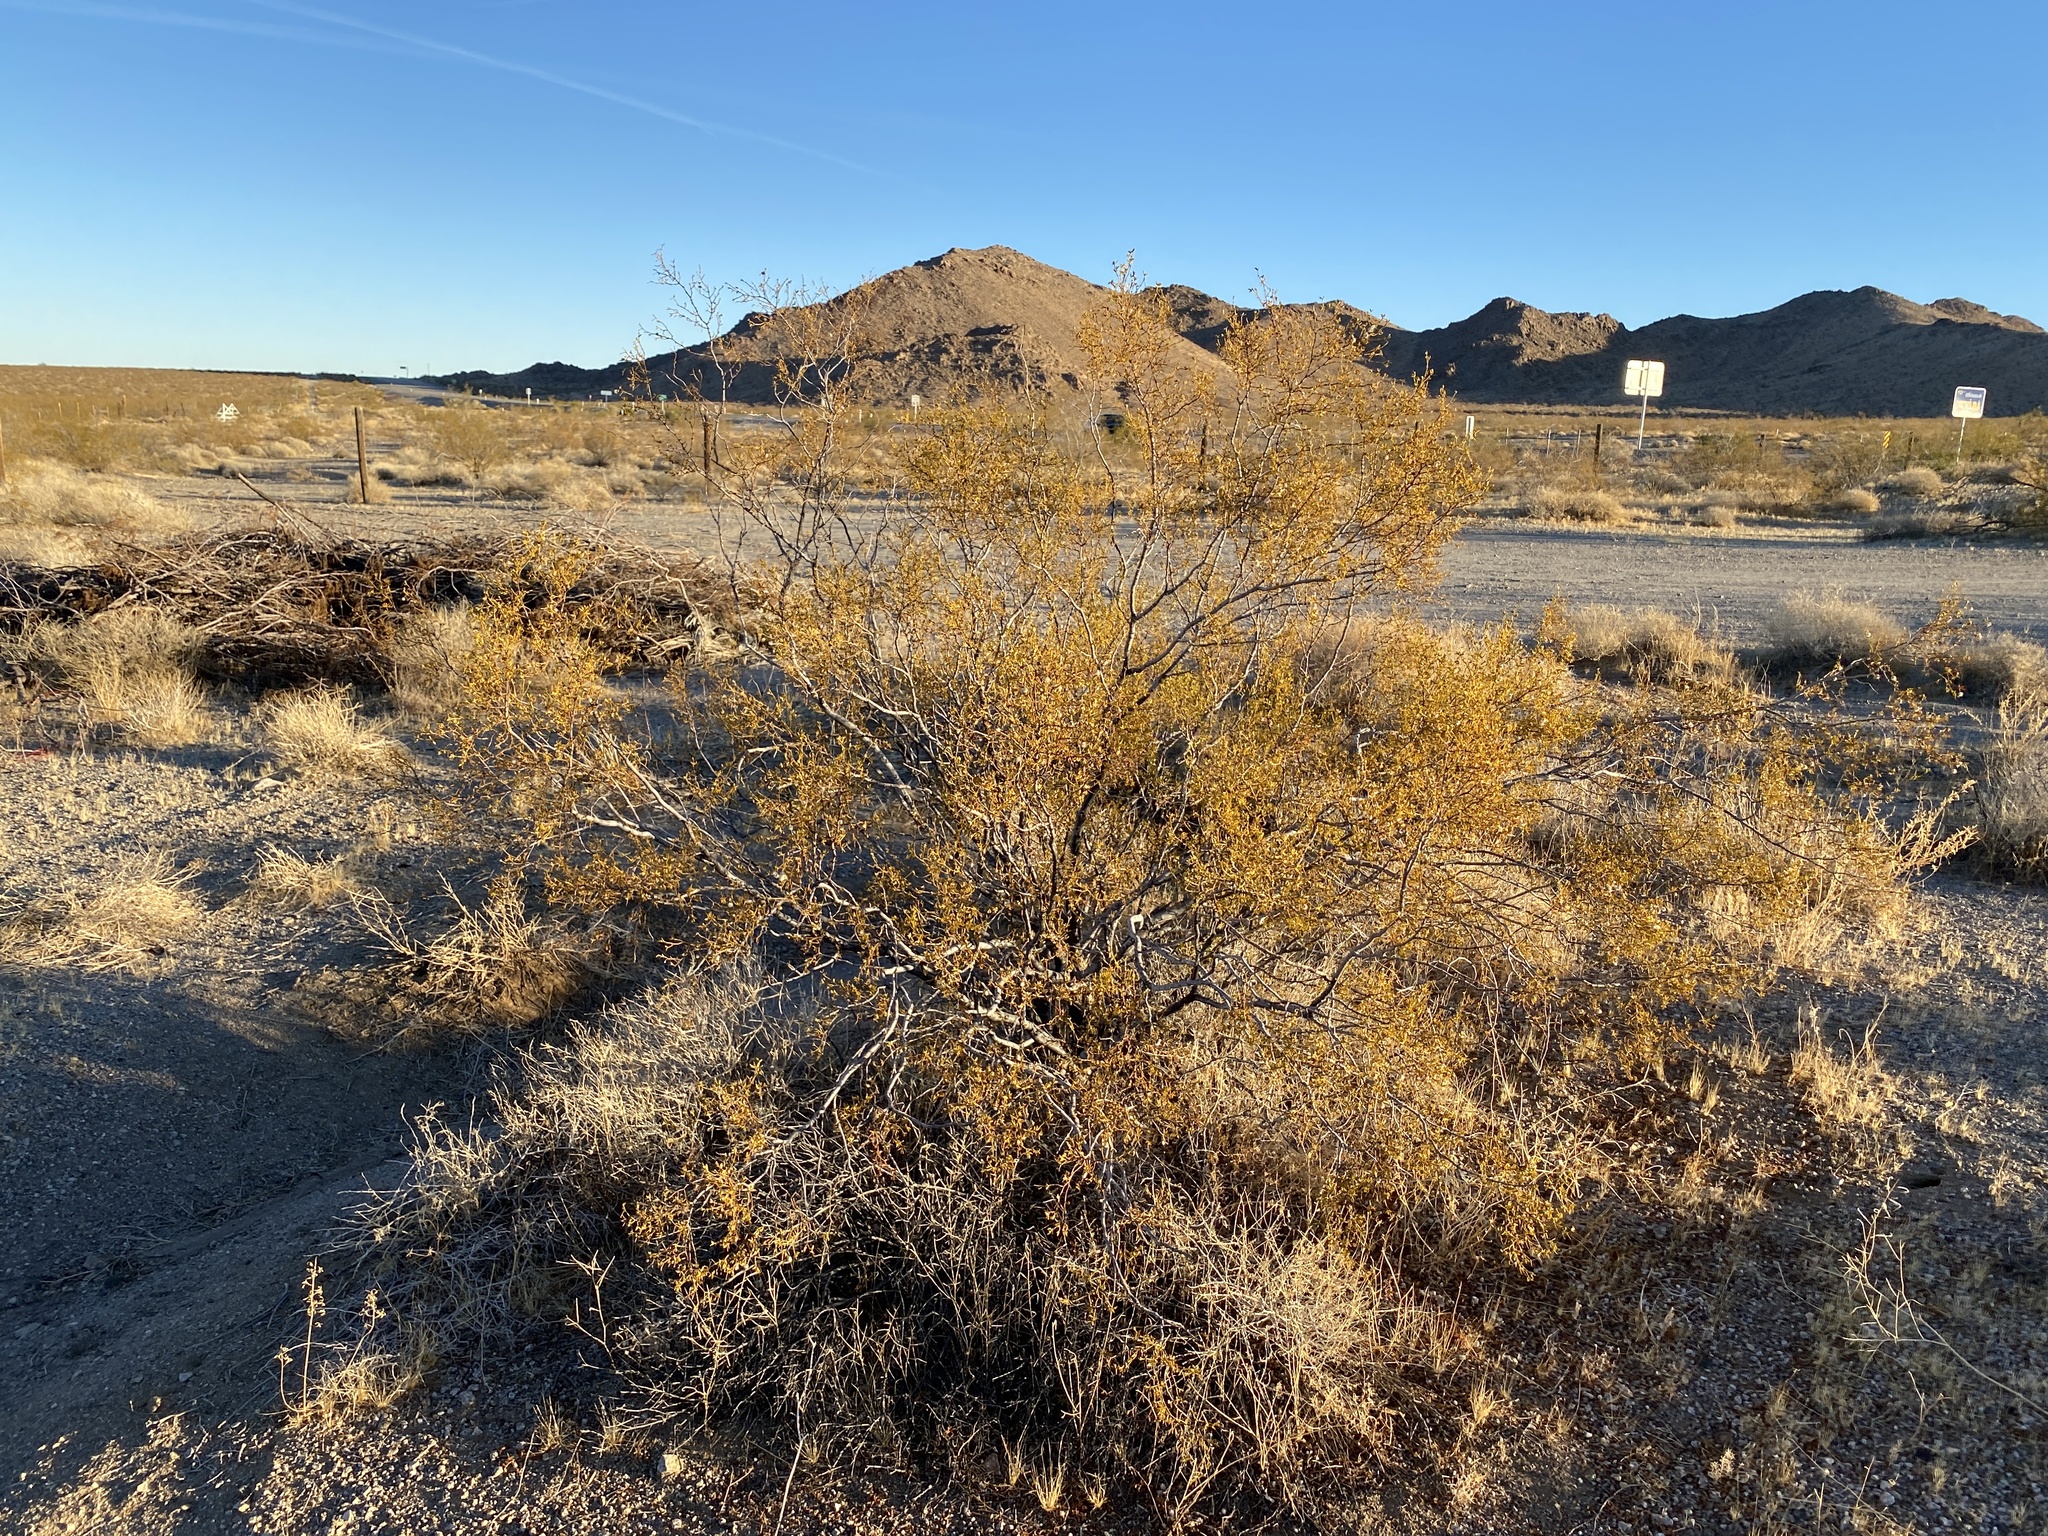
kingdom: Plantae
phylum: Tracheophyta
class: Magnoliopsida
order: Zygophyllales
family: Zygophyllaceae
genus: Larrea
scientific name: Larrea tridentata
